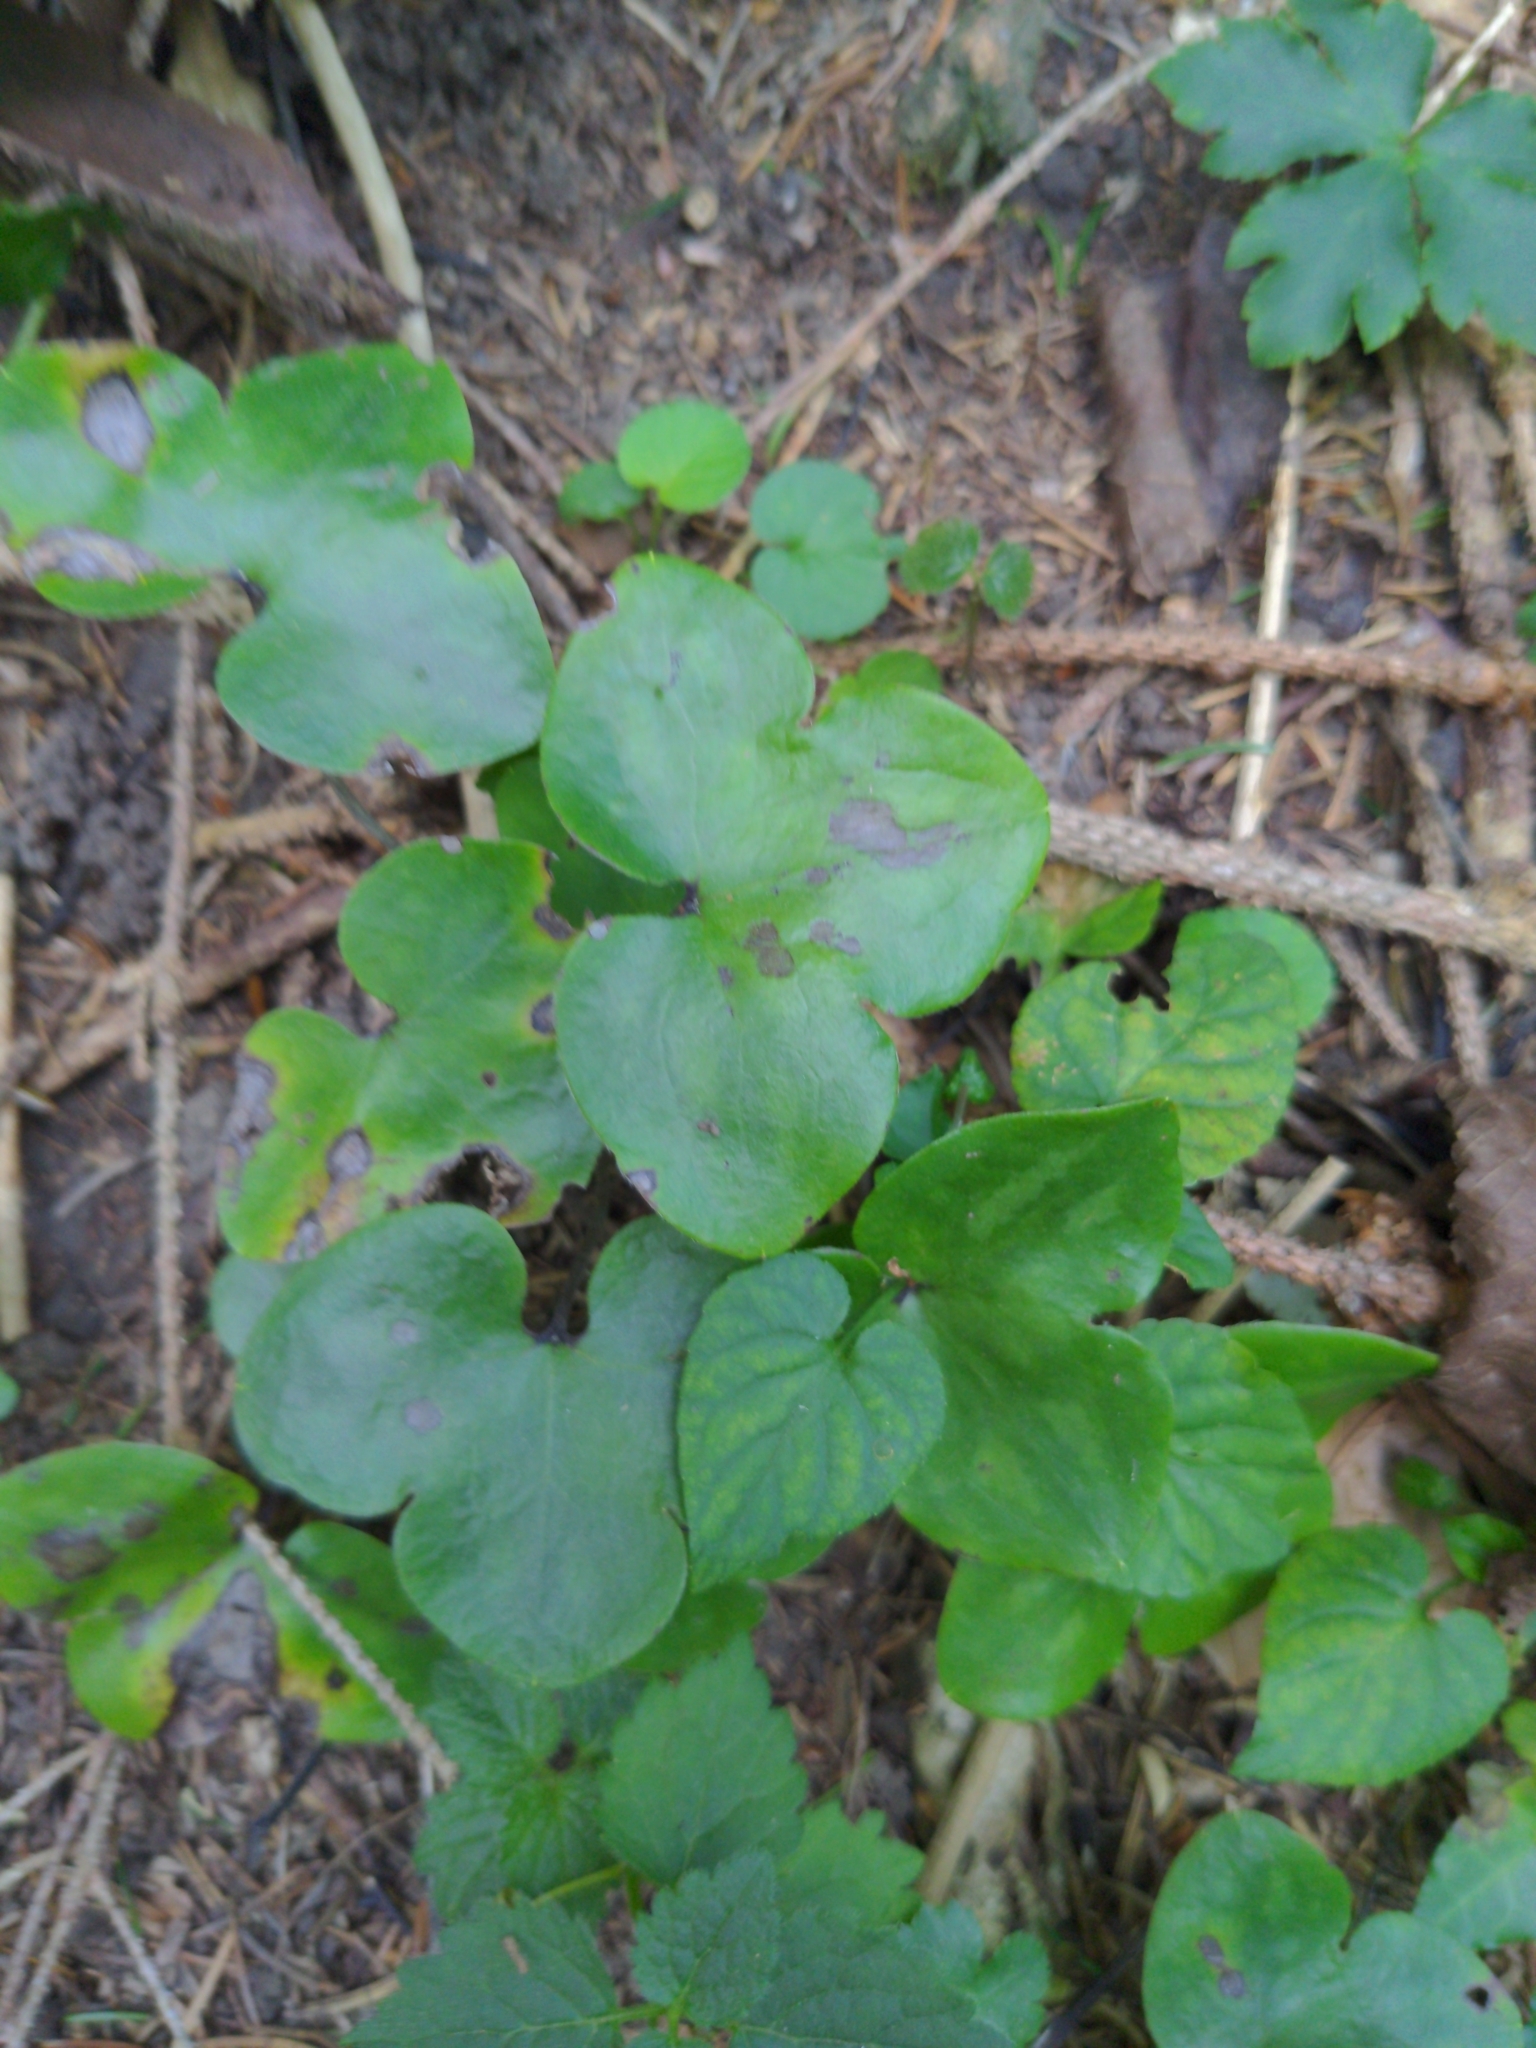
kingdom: Plantae
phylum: Tracheophyta
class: Magnoliopsida
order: Ranunculales
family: Ranunculaceae
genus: Hepatica
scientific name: Hepatica nobilis
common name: Liverleaf
